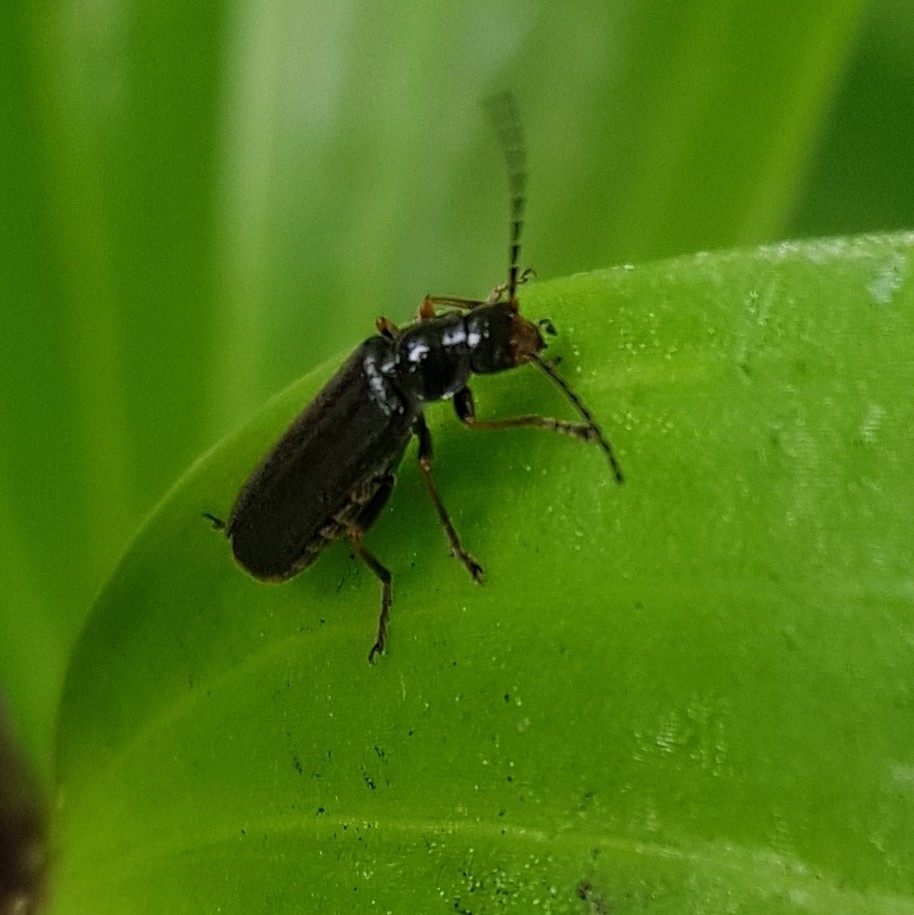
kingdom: Animalia
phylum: Arthropoda
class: Insecta
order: Coleoptera
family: Cantharidae
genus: Cantharis
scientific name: Cantharis flavilabris
